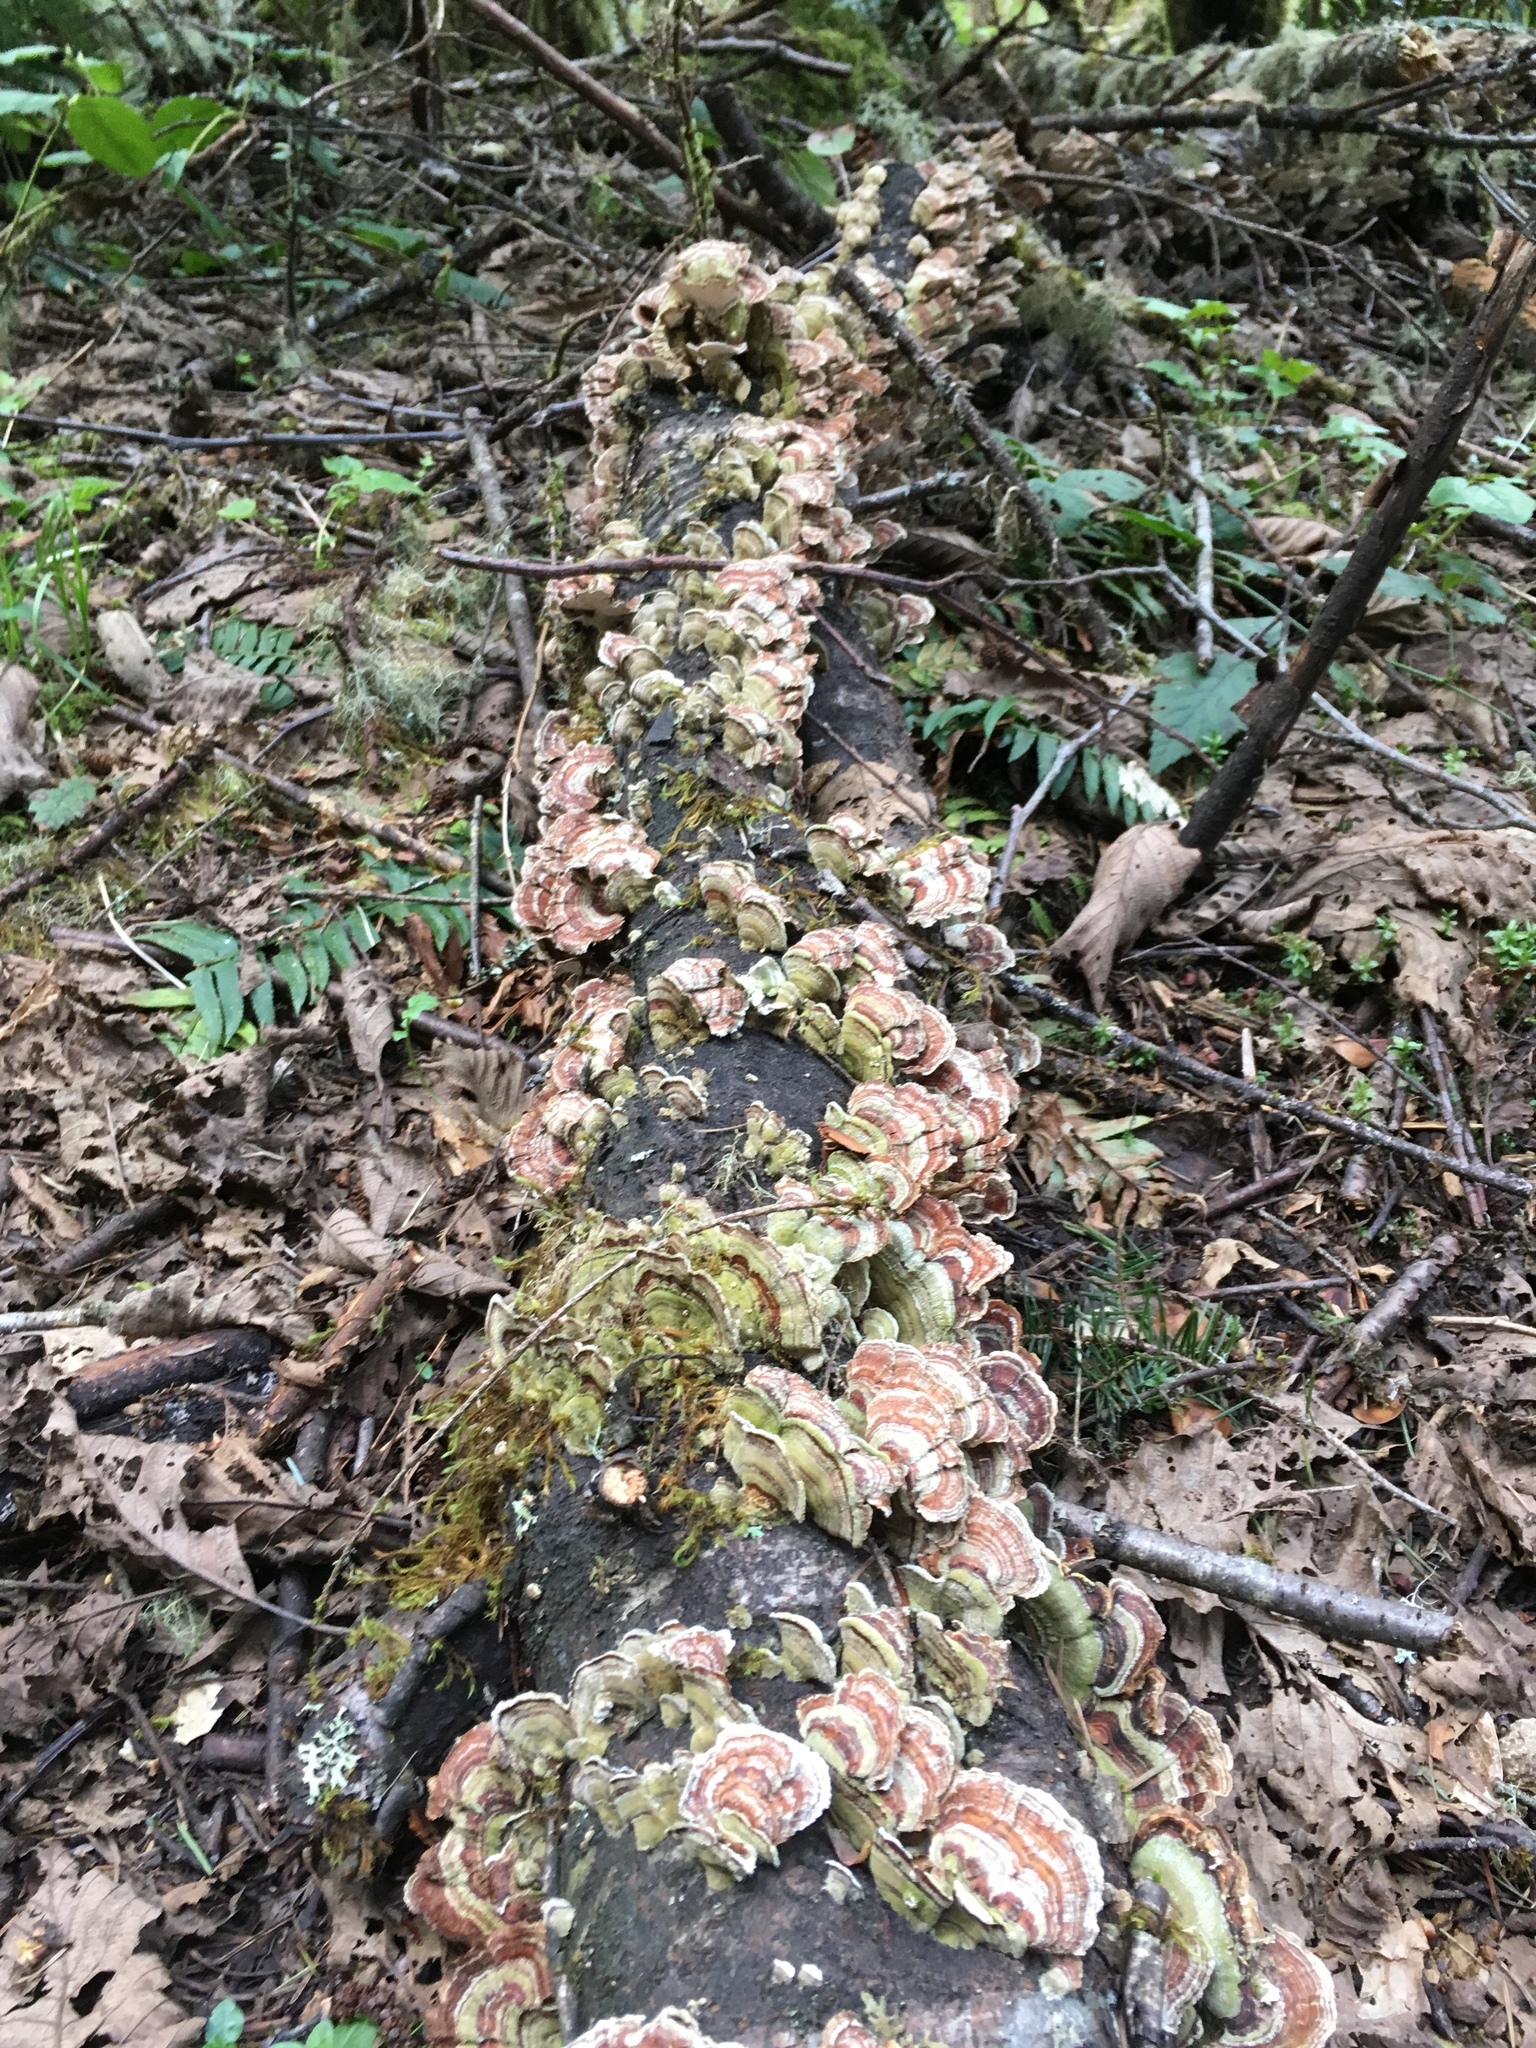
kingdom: Fungi
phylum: Basidiomycota
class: Agaricomycetes
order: Polyporales
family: Polyporaceae
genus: Trametes
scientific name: Trametes versicolor
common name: Turkeytail
